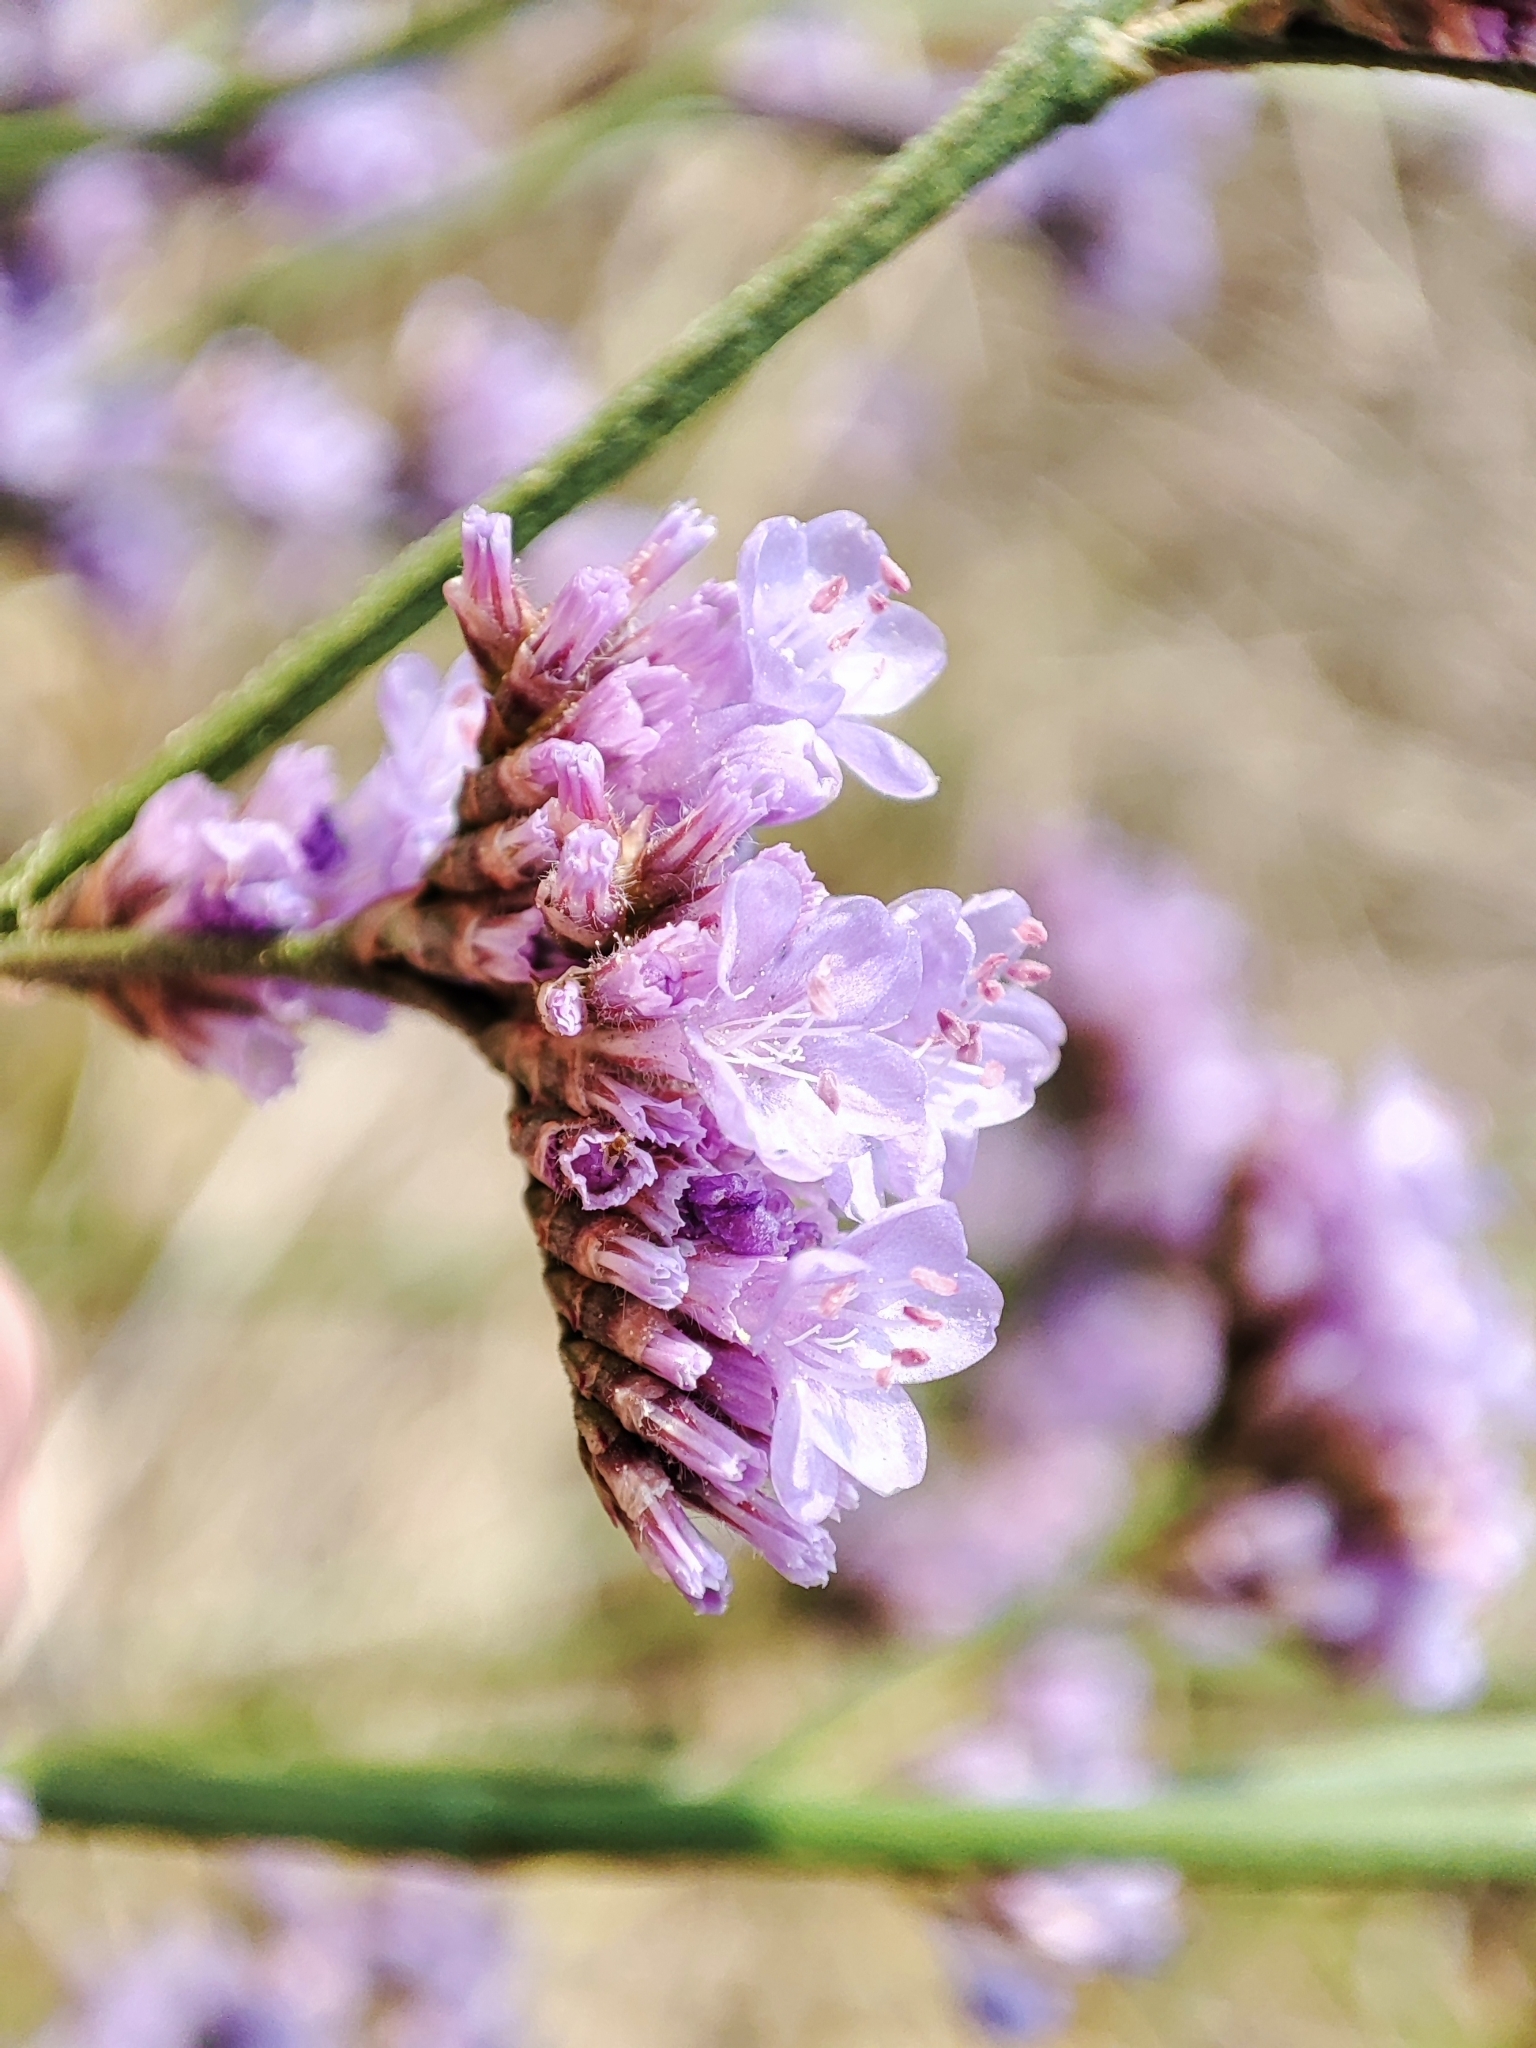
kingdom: Plantae
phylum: Tracheophyta
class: Magnoliopsida
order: Caryophyllales
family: Plumbaginaceae
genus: Limonium
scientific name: Limonium alutaceum
